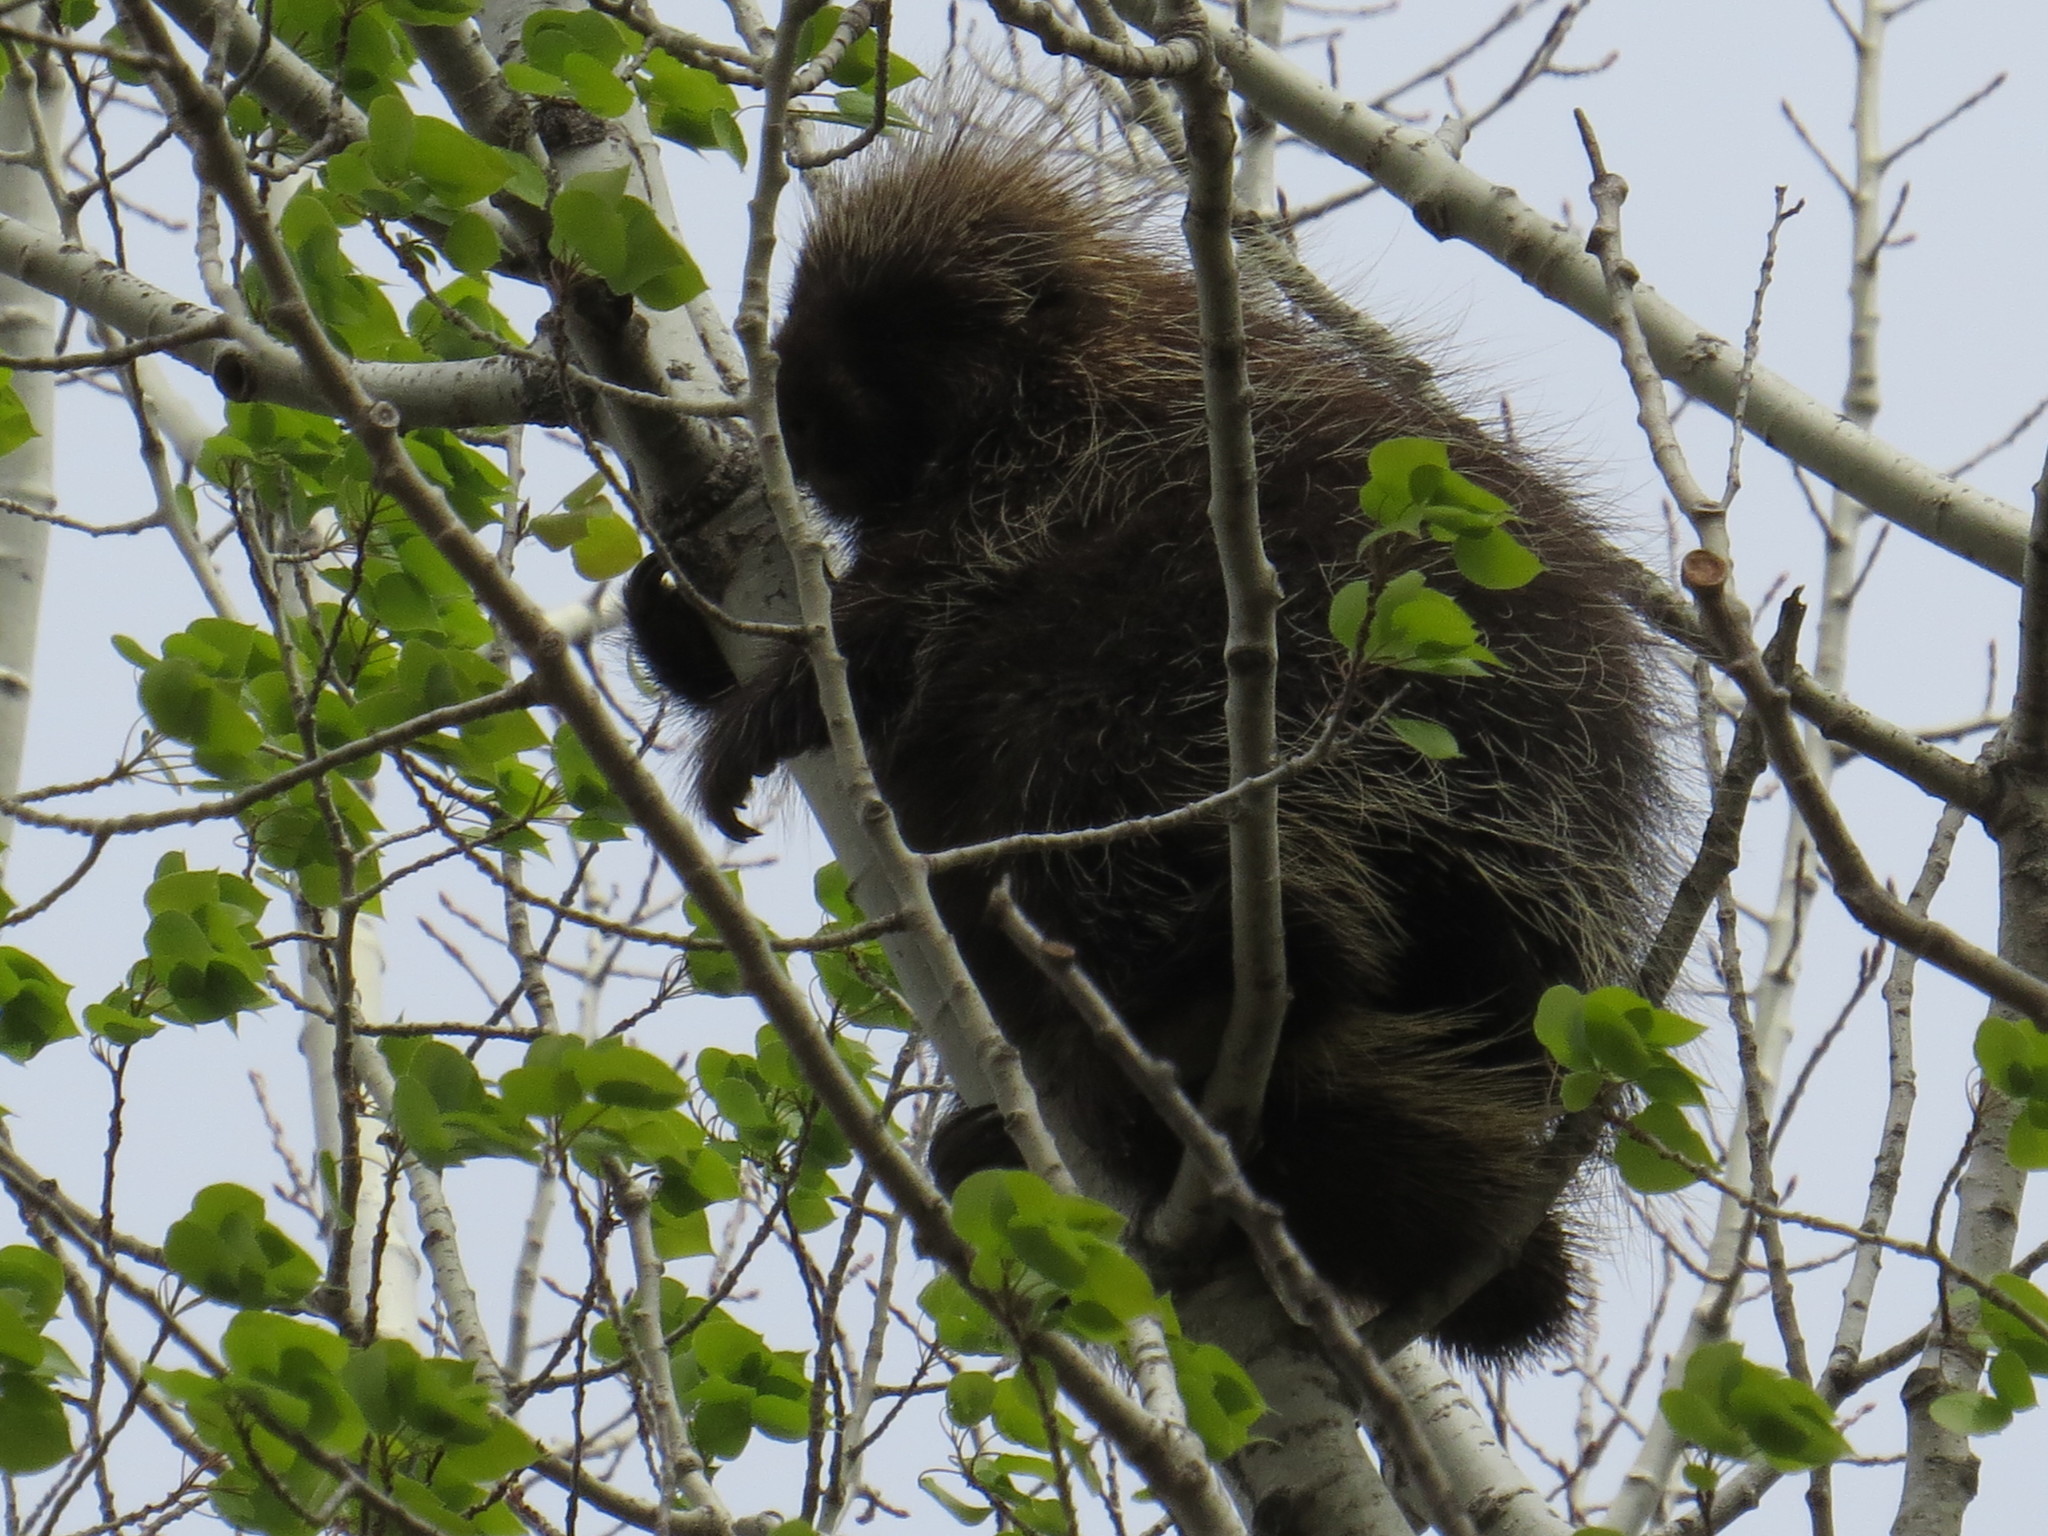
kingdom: Animalia
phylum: Chordata
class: Mammalia
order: Rodentia
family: Erethizontidae
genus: Erethizon
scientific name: Erethizon dorsatus
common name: North american porcupine
